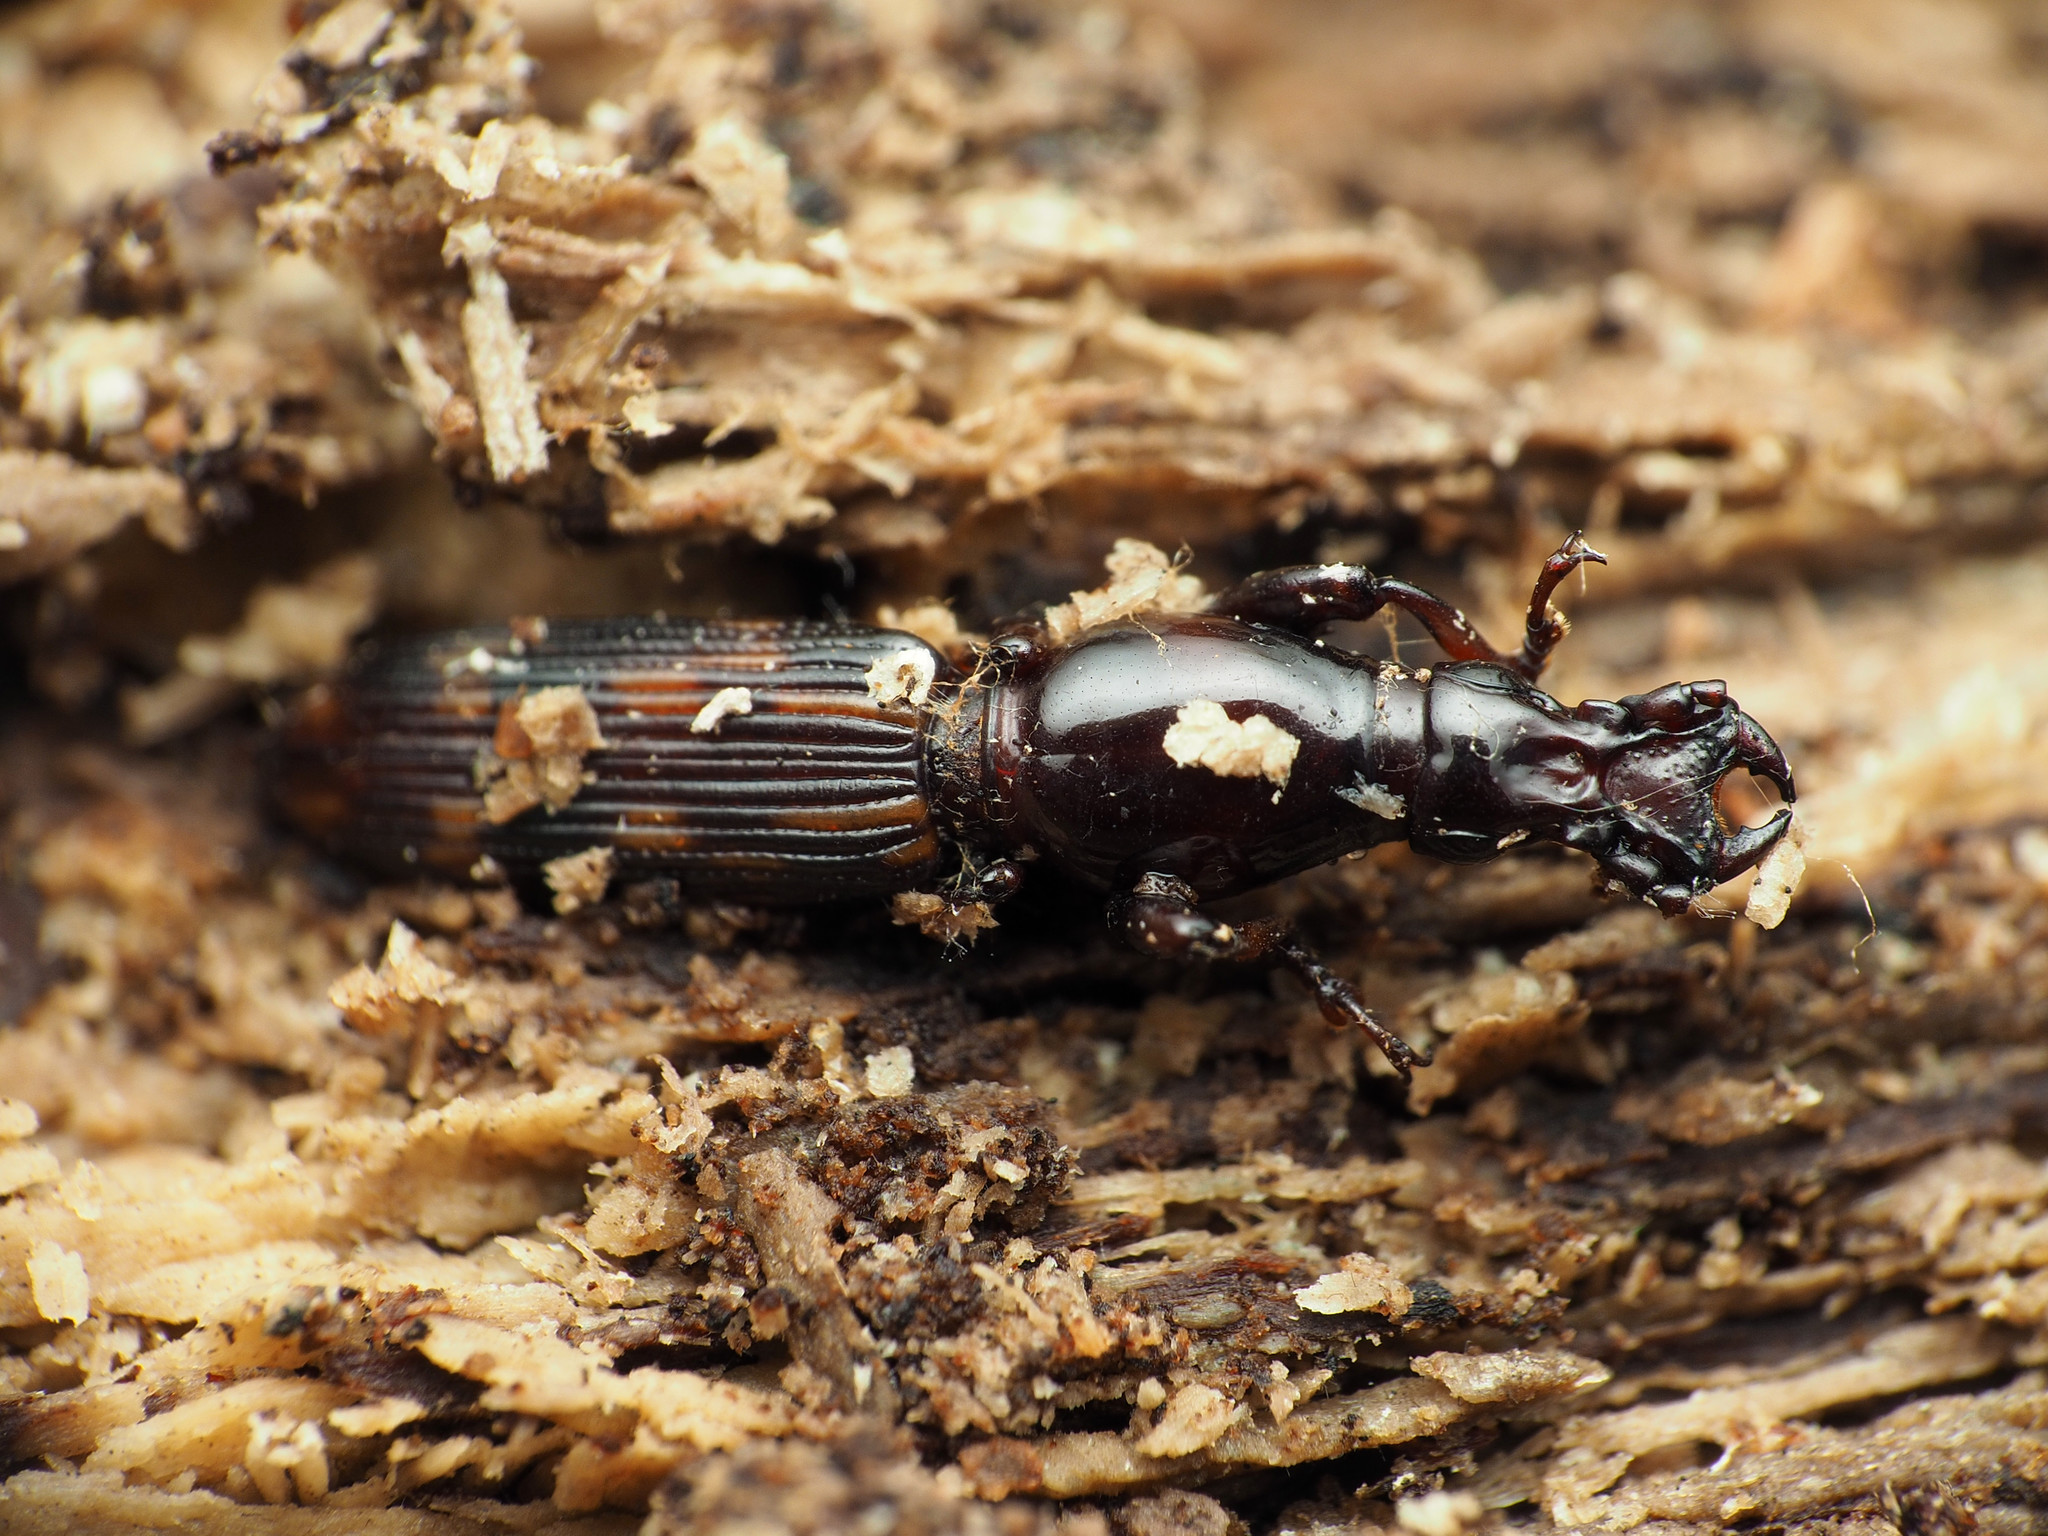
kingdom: Animalia
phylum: Arthropoda
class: Insecta
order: Coleoptera
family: Brentidae
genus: Arrenodes
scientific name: Arrenodes minutus
